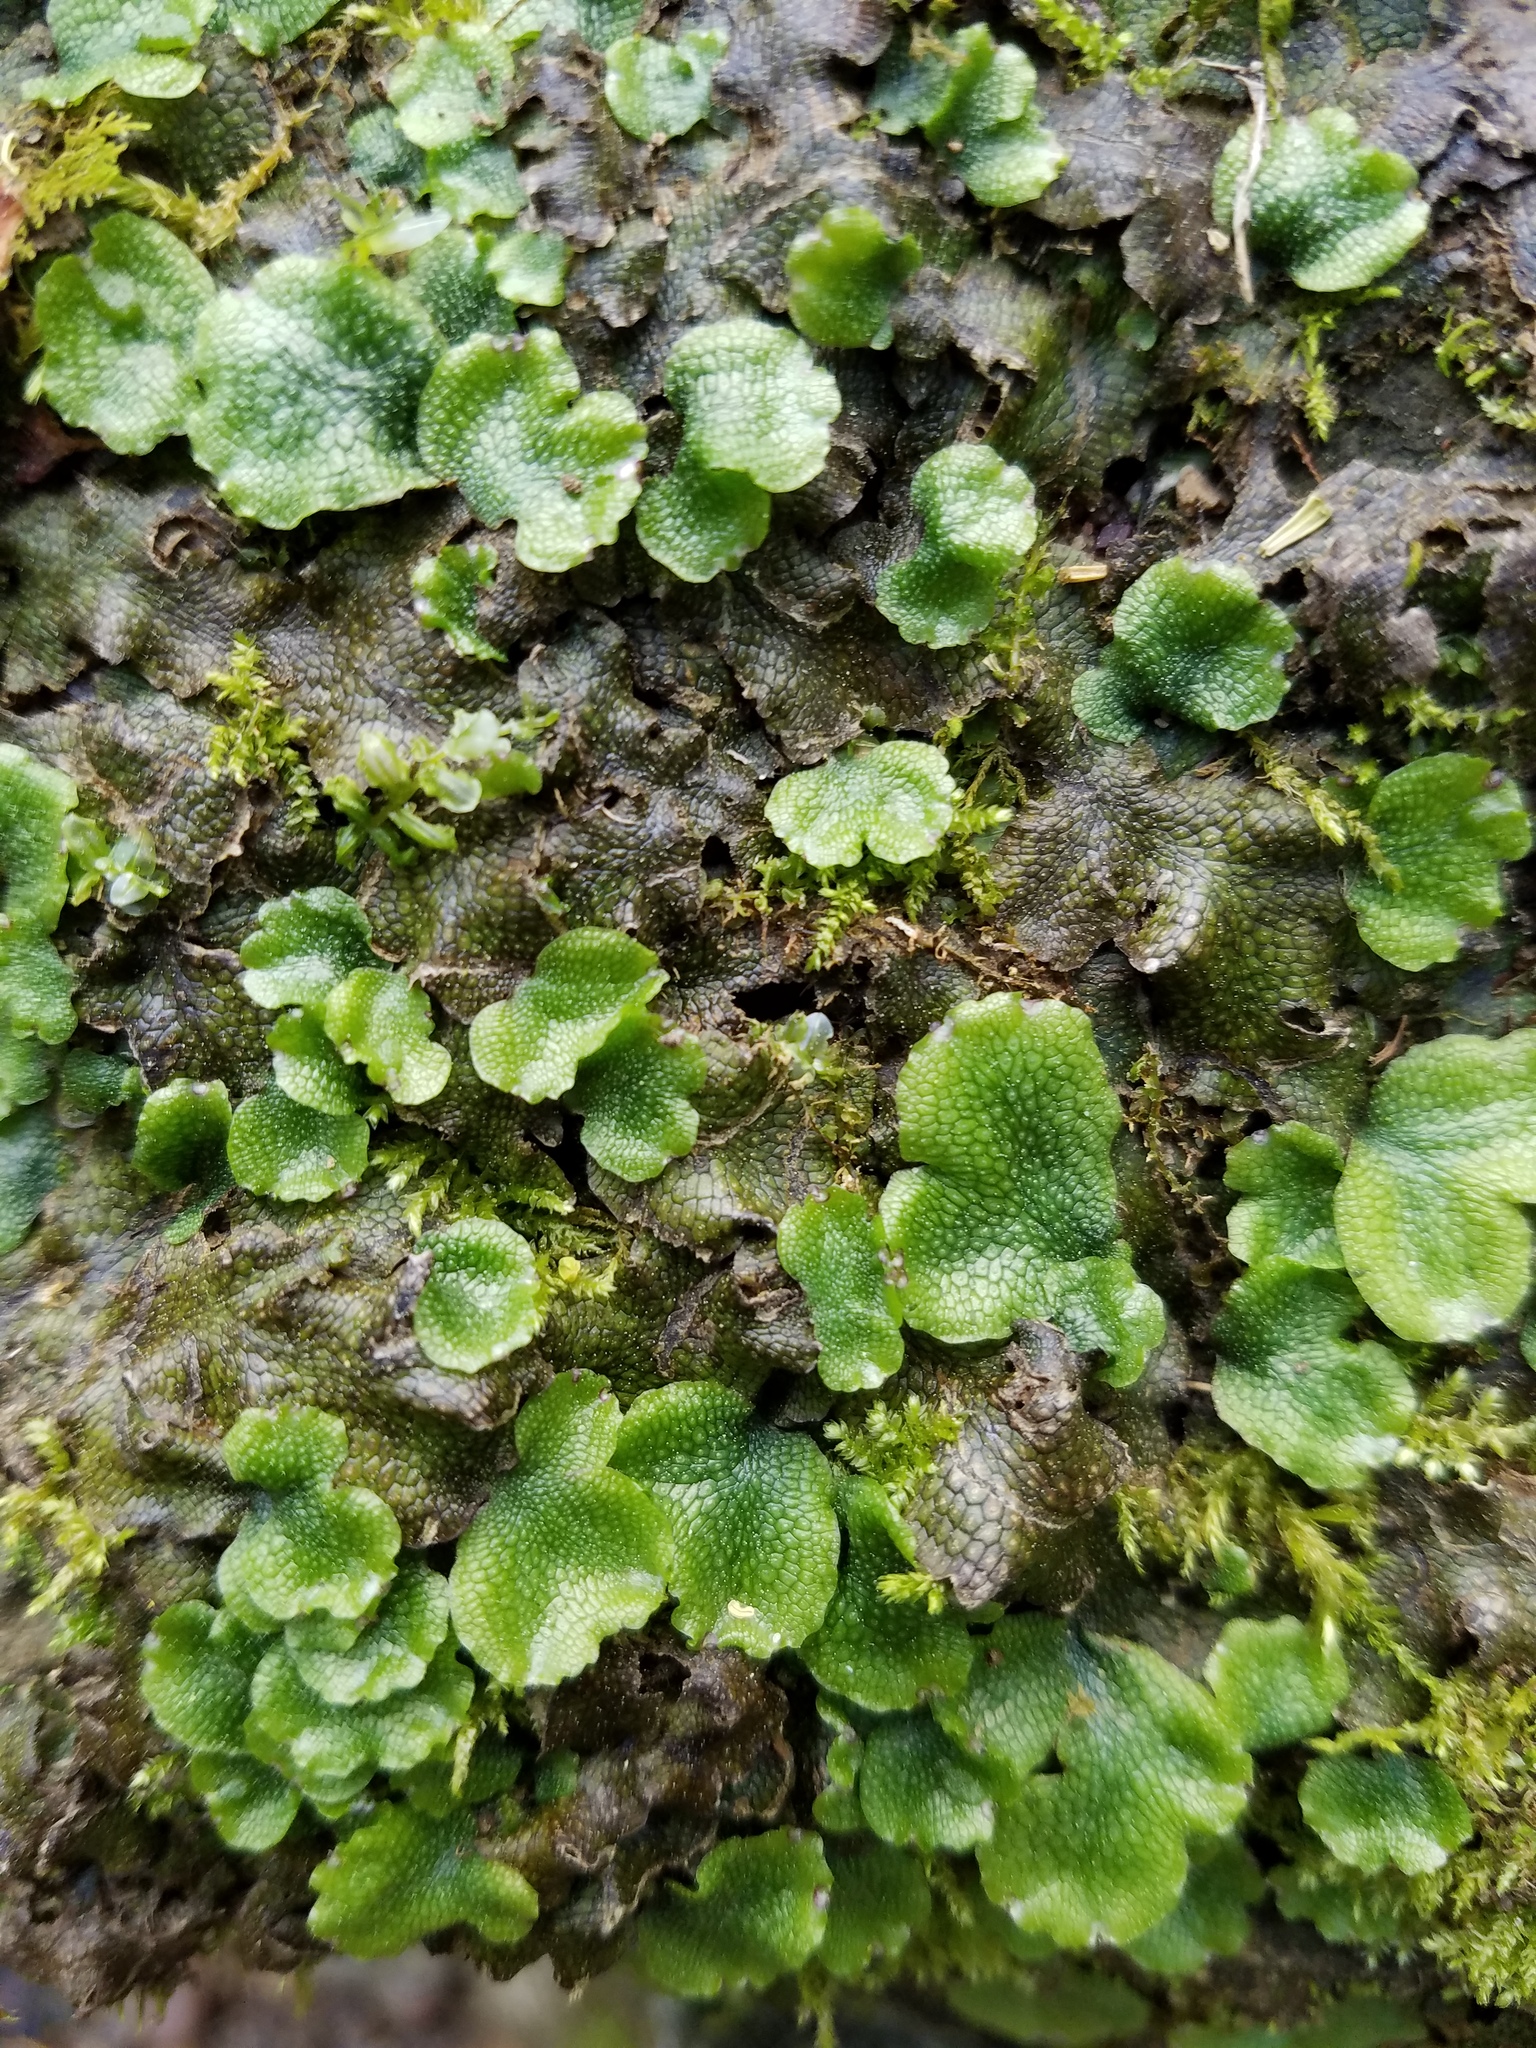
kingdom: Plantae
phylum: Marchantiophyta
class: Marchantiopsida
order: Marchantiales
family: Conocephalaceae
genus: Conocephalum
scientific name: Conocephalum salebrosum
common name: Cat-tongue liverwort
